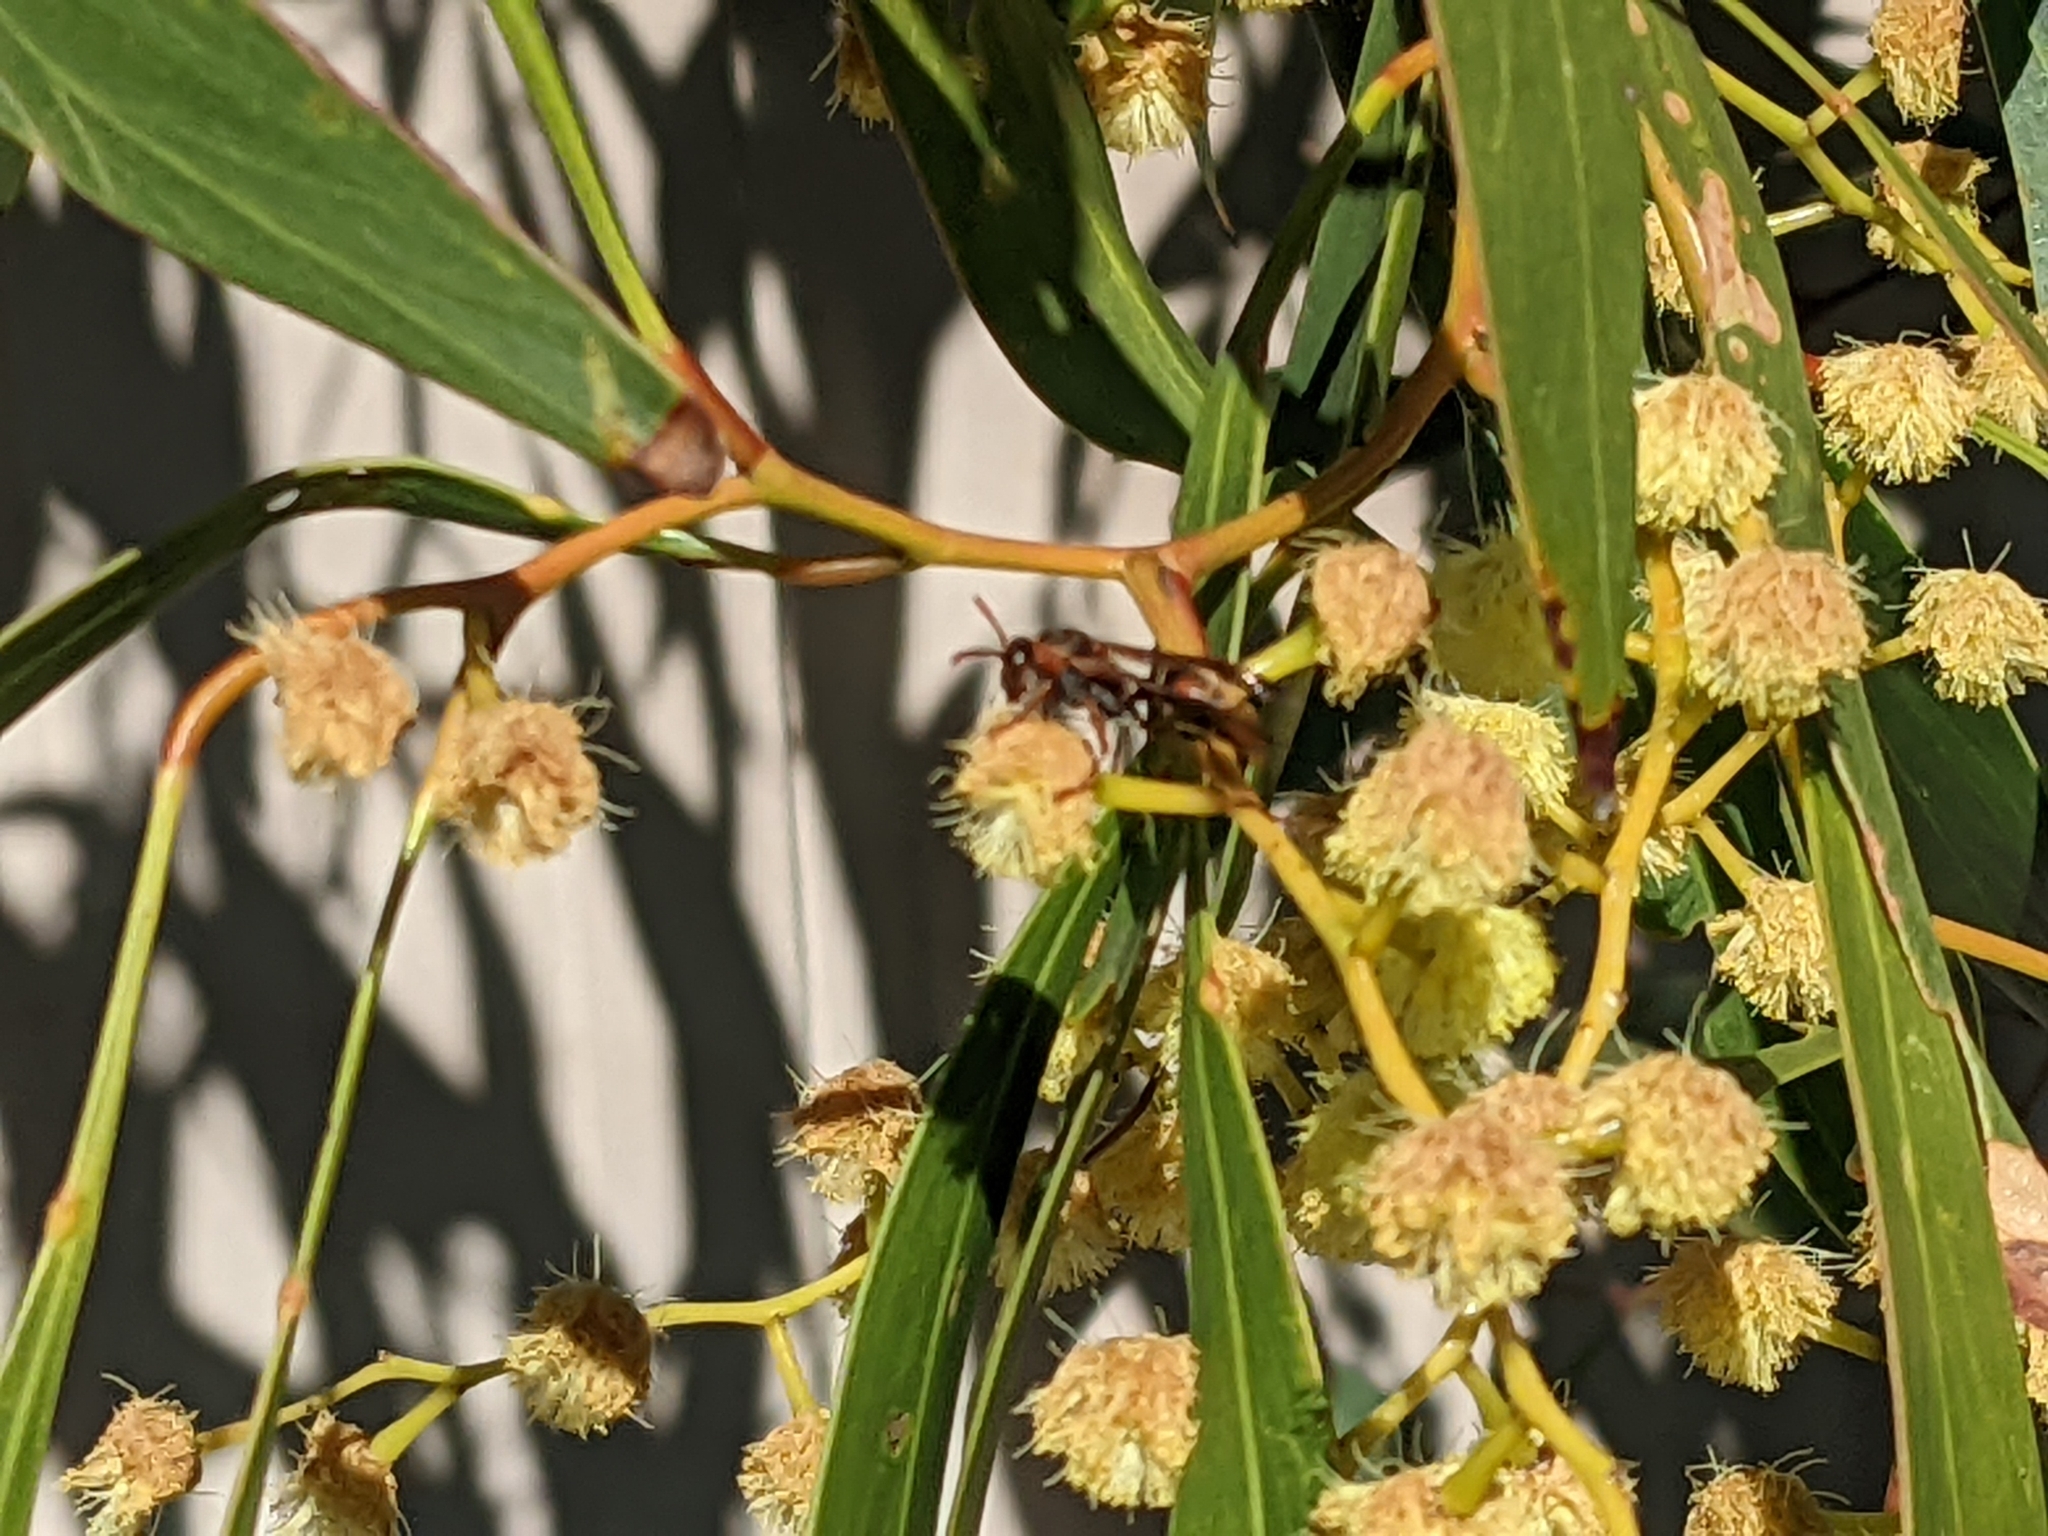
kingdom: Animalia
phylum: Arthropoda
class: Insecta
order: Hymenoptera
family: Eumenidae
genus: Polistes
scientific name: Polistes humilis
